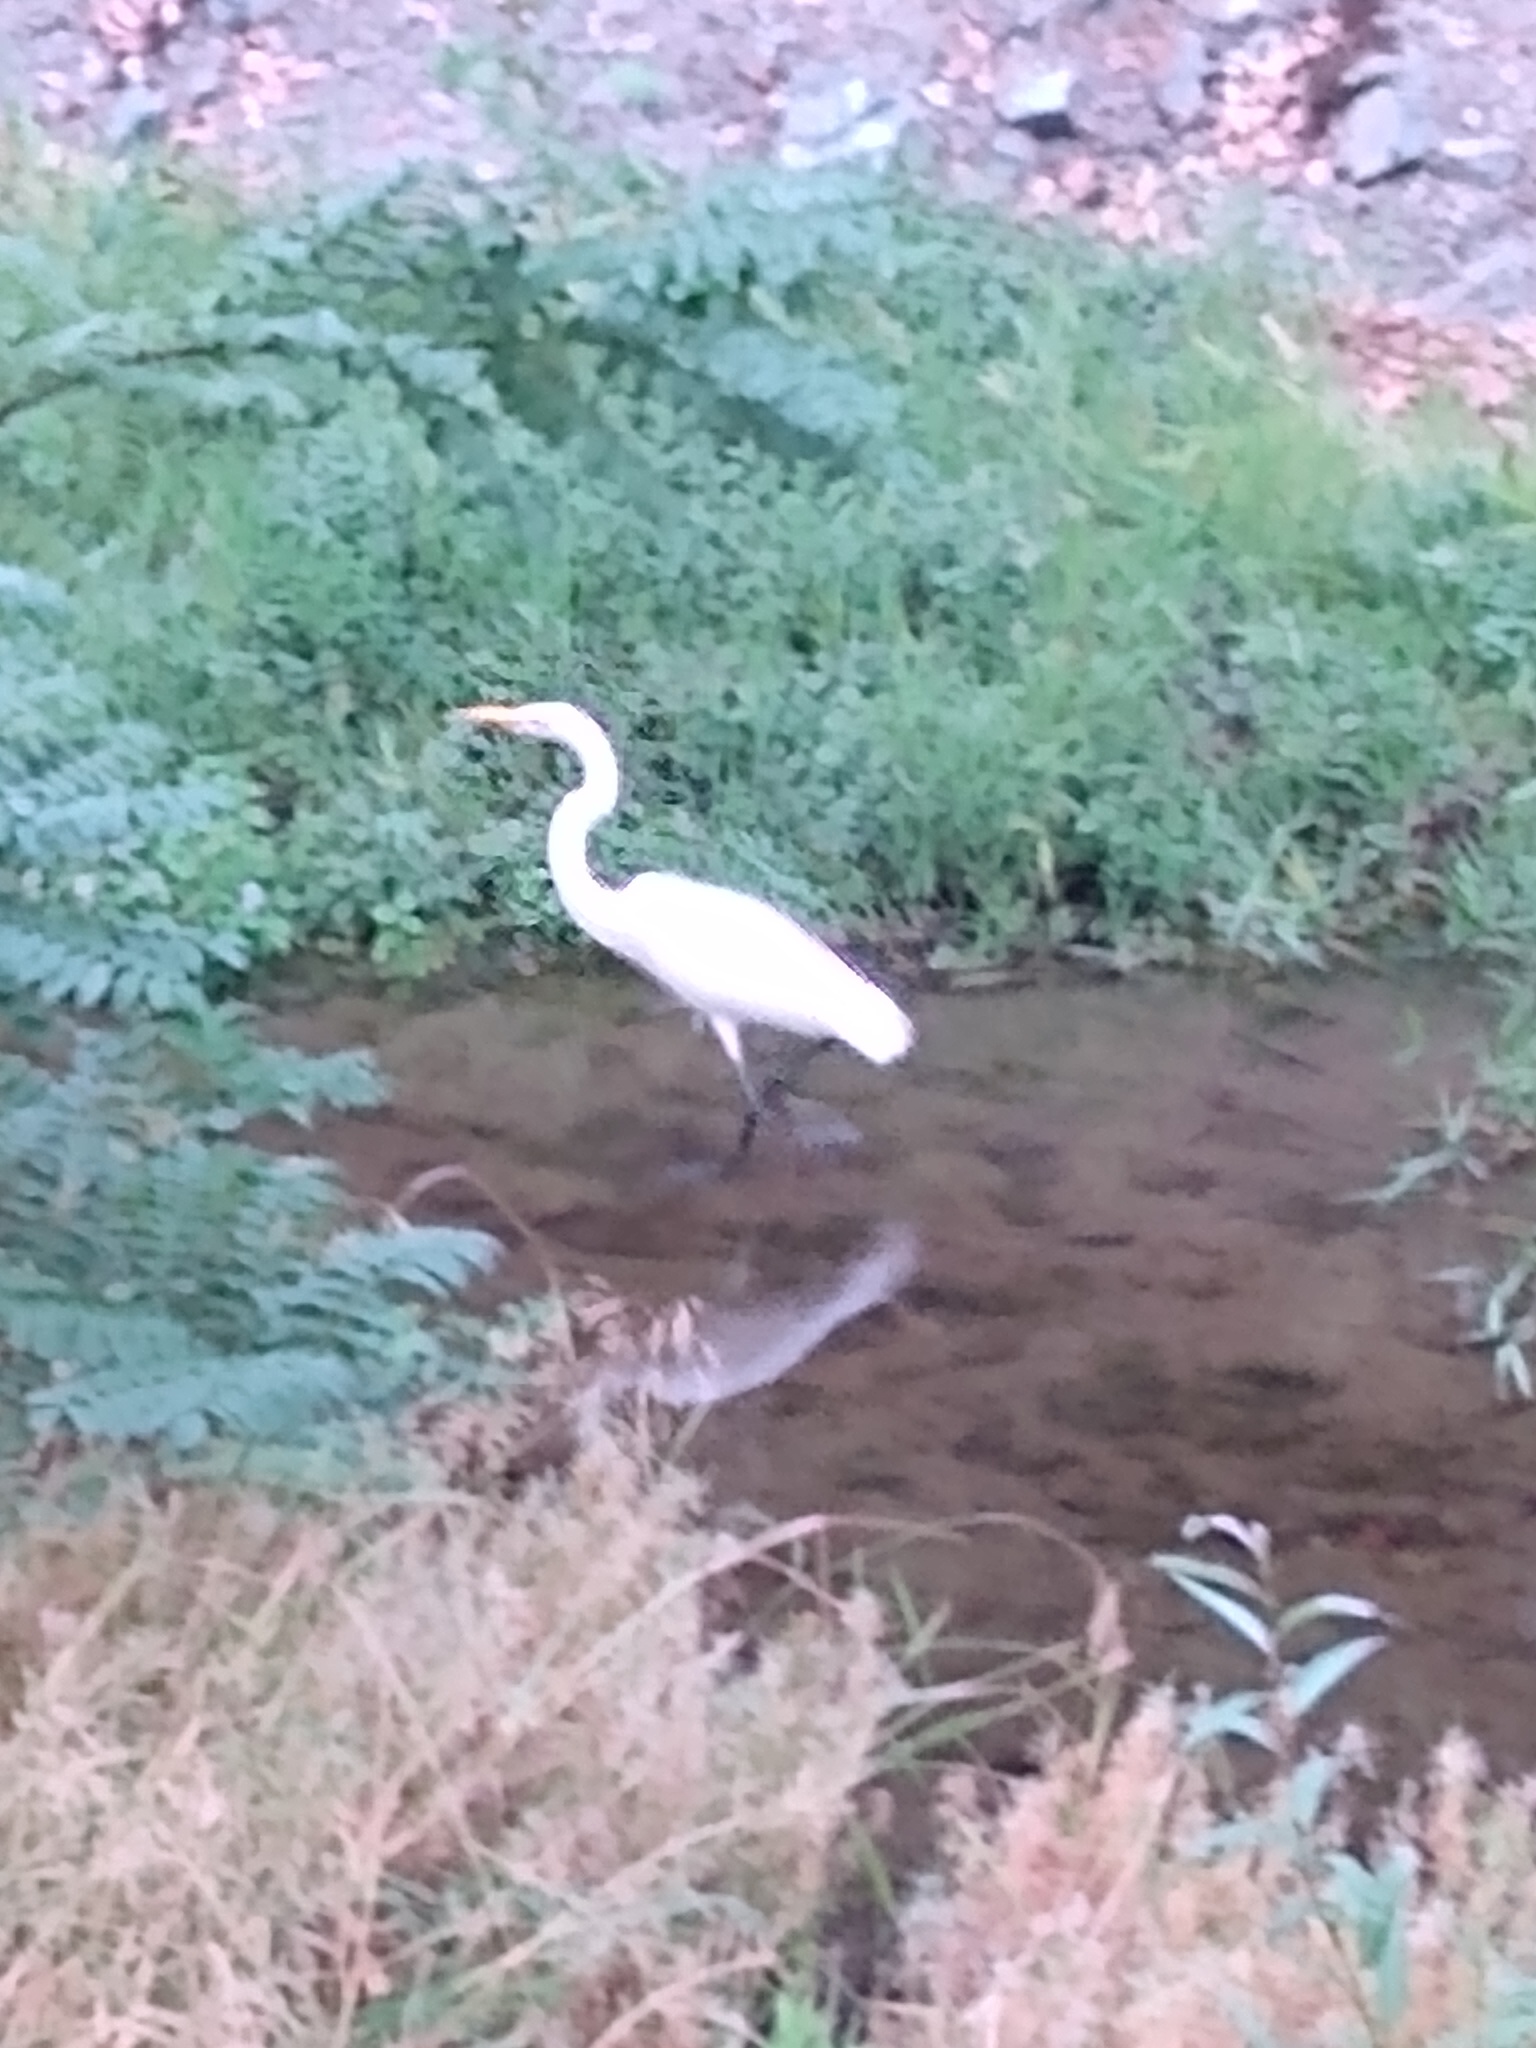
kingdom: Animalia
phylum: Chordata
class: Aves
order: Pelecaniformes
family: Ardeidae
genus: Ardea
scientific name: Ardea alba
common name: Great egret
